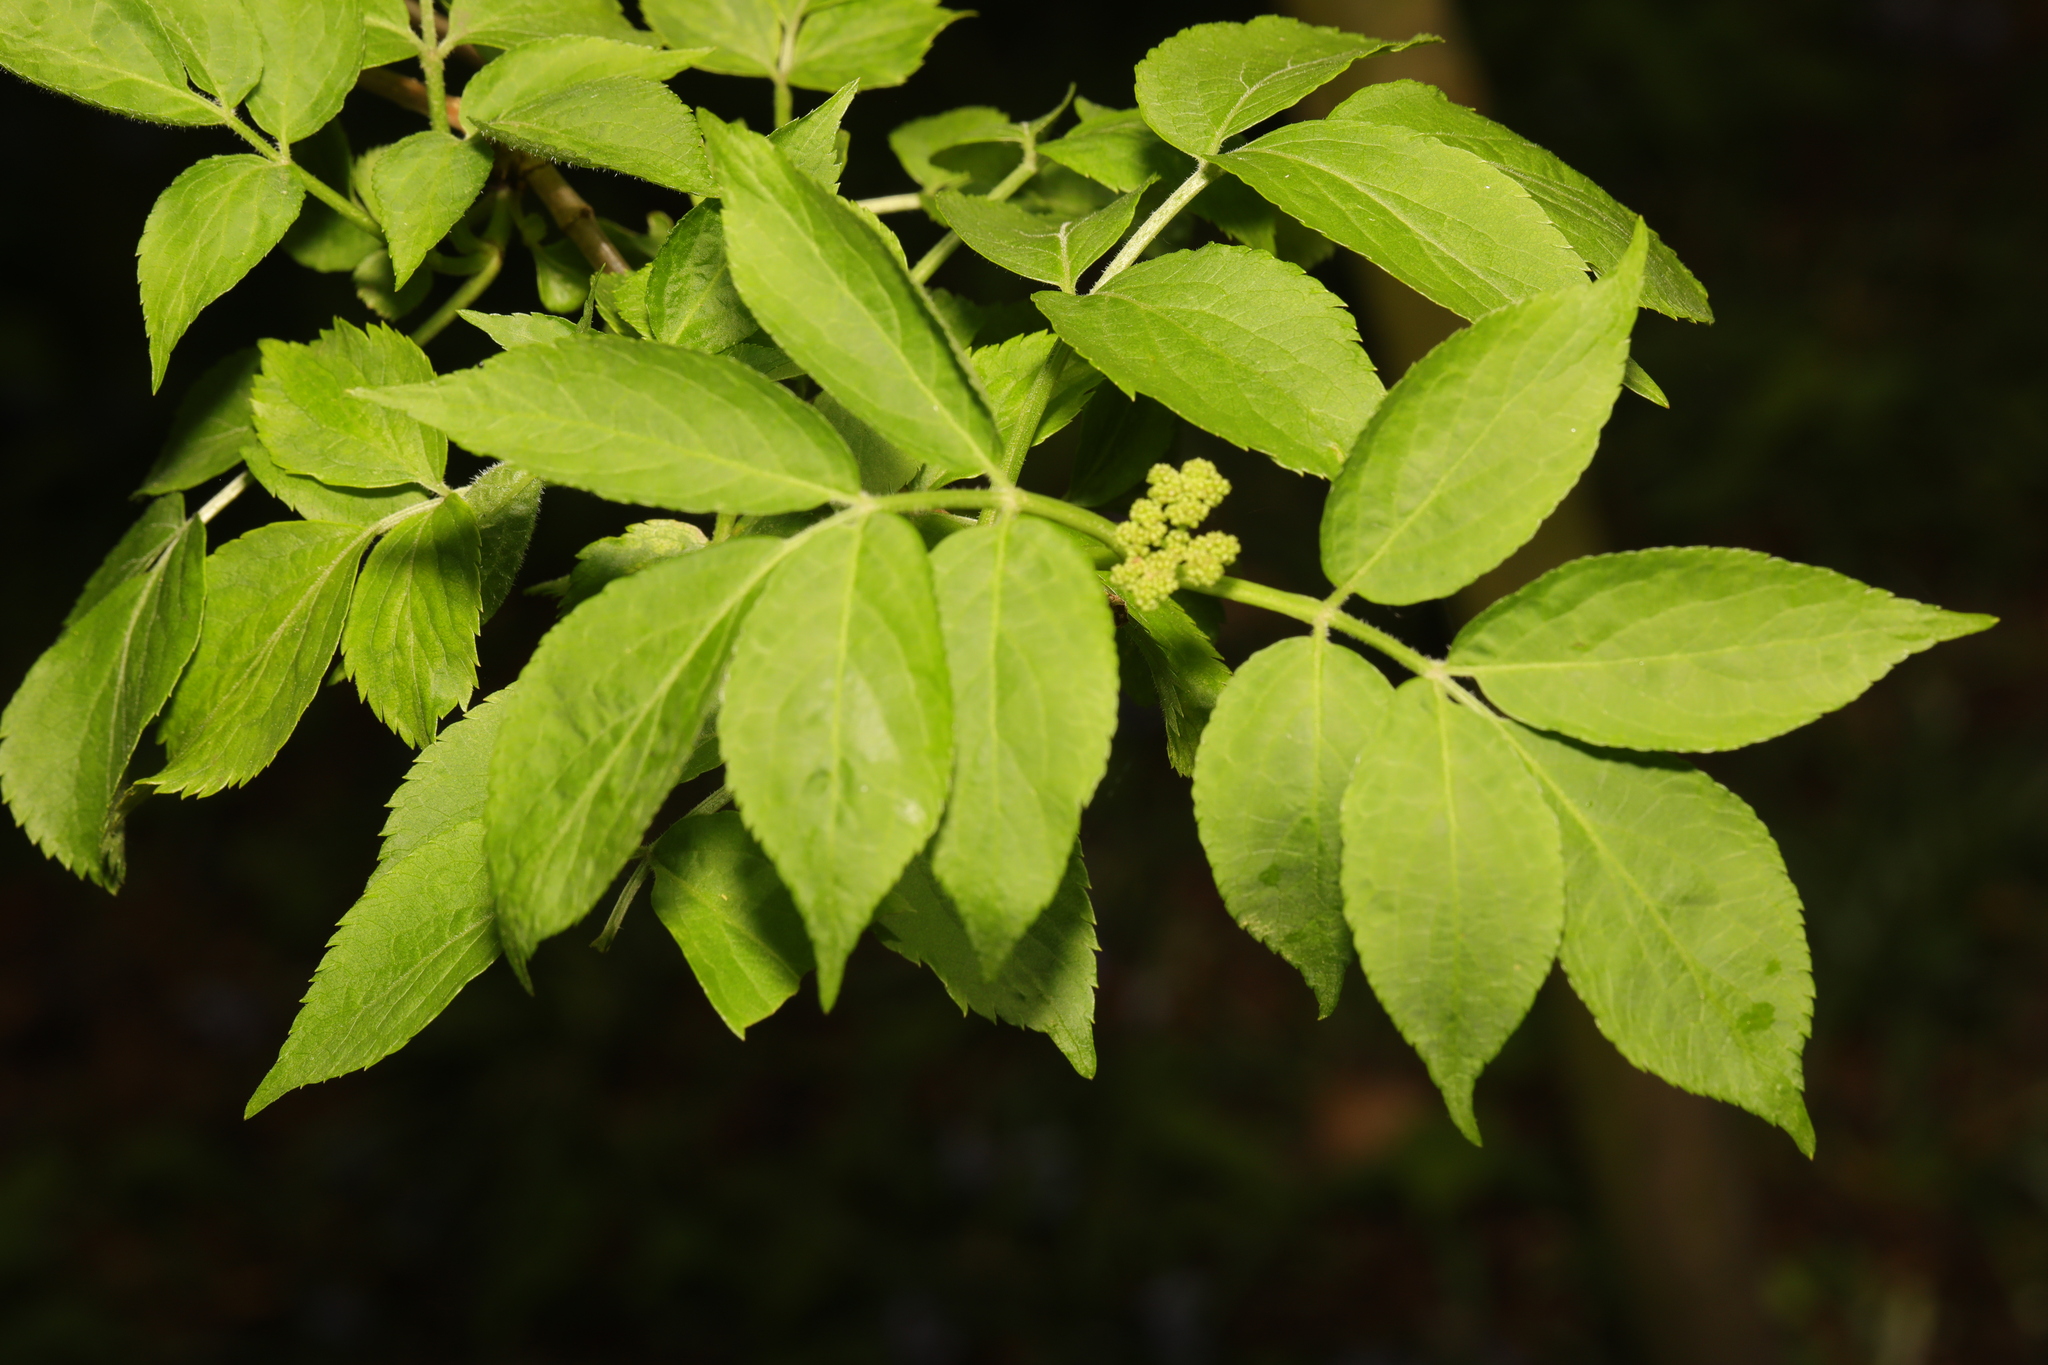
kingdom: Plantae
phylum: Tracheophyta
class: Magnoliopsida
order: Dipsacales
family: Viburnaceae
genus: Sambucus
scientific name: Sambucus nigra
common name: Elder
